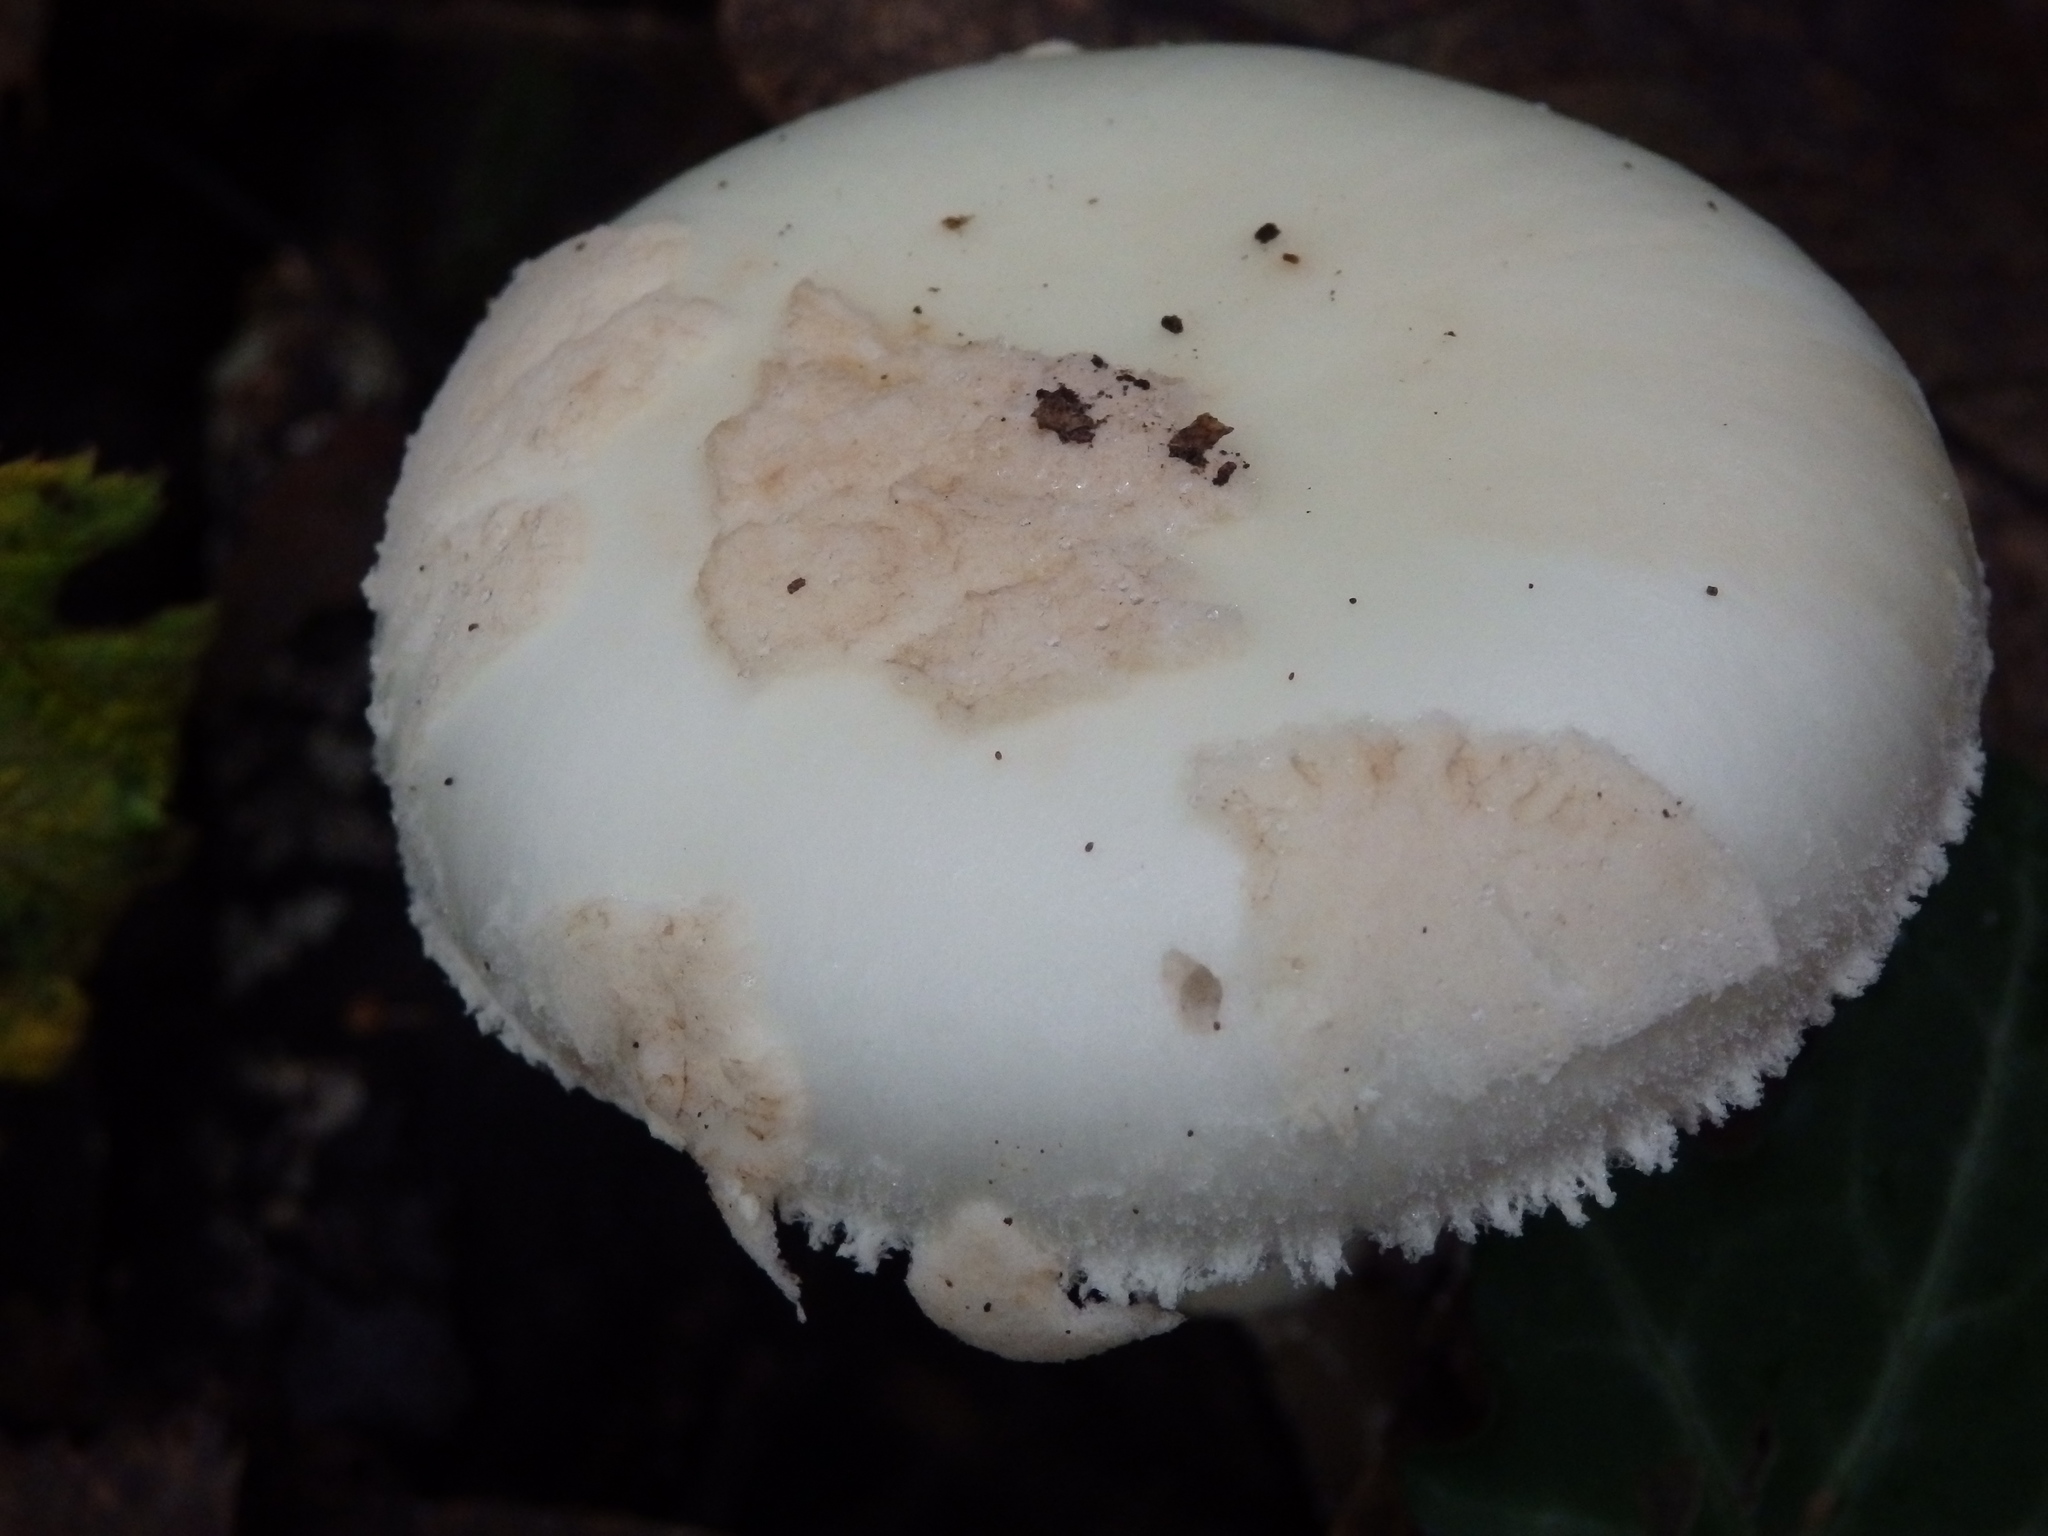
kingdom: Fungi
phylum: Basidiomycota
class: Agaricomycetes
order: Agaricales
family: Amanitaceae
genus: Amanita
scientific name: Amanita citrina
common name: False death-cap
